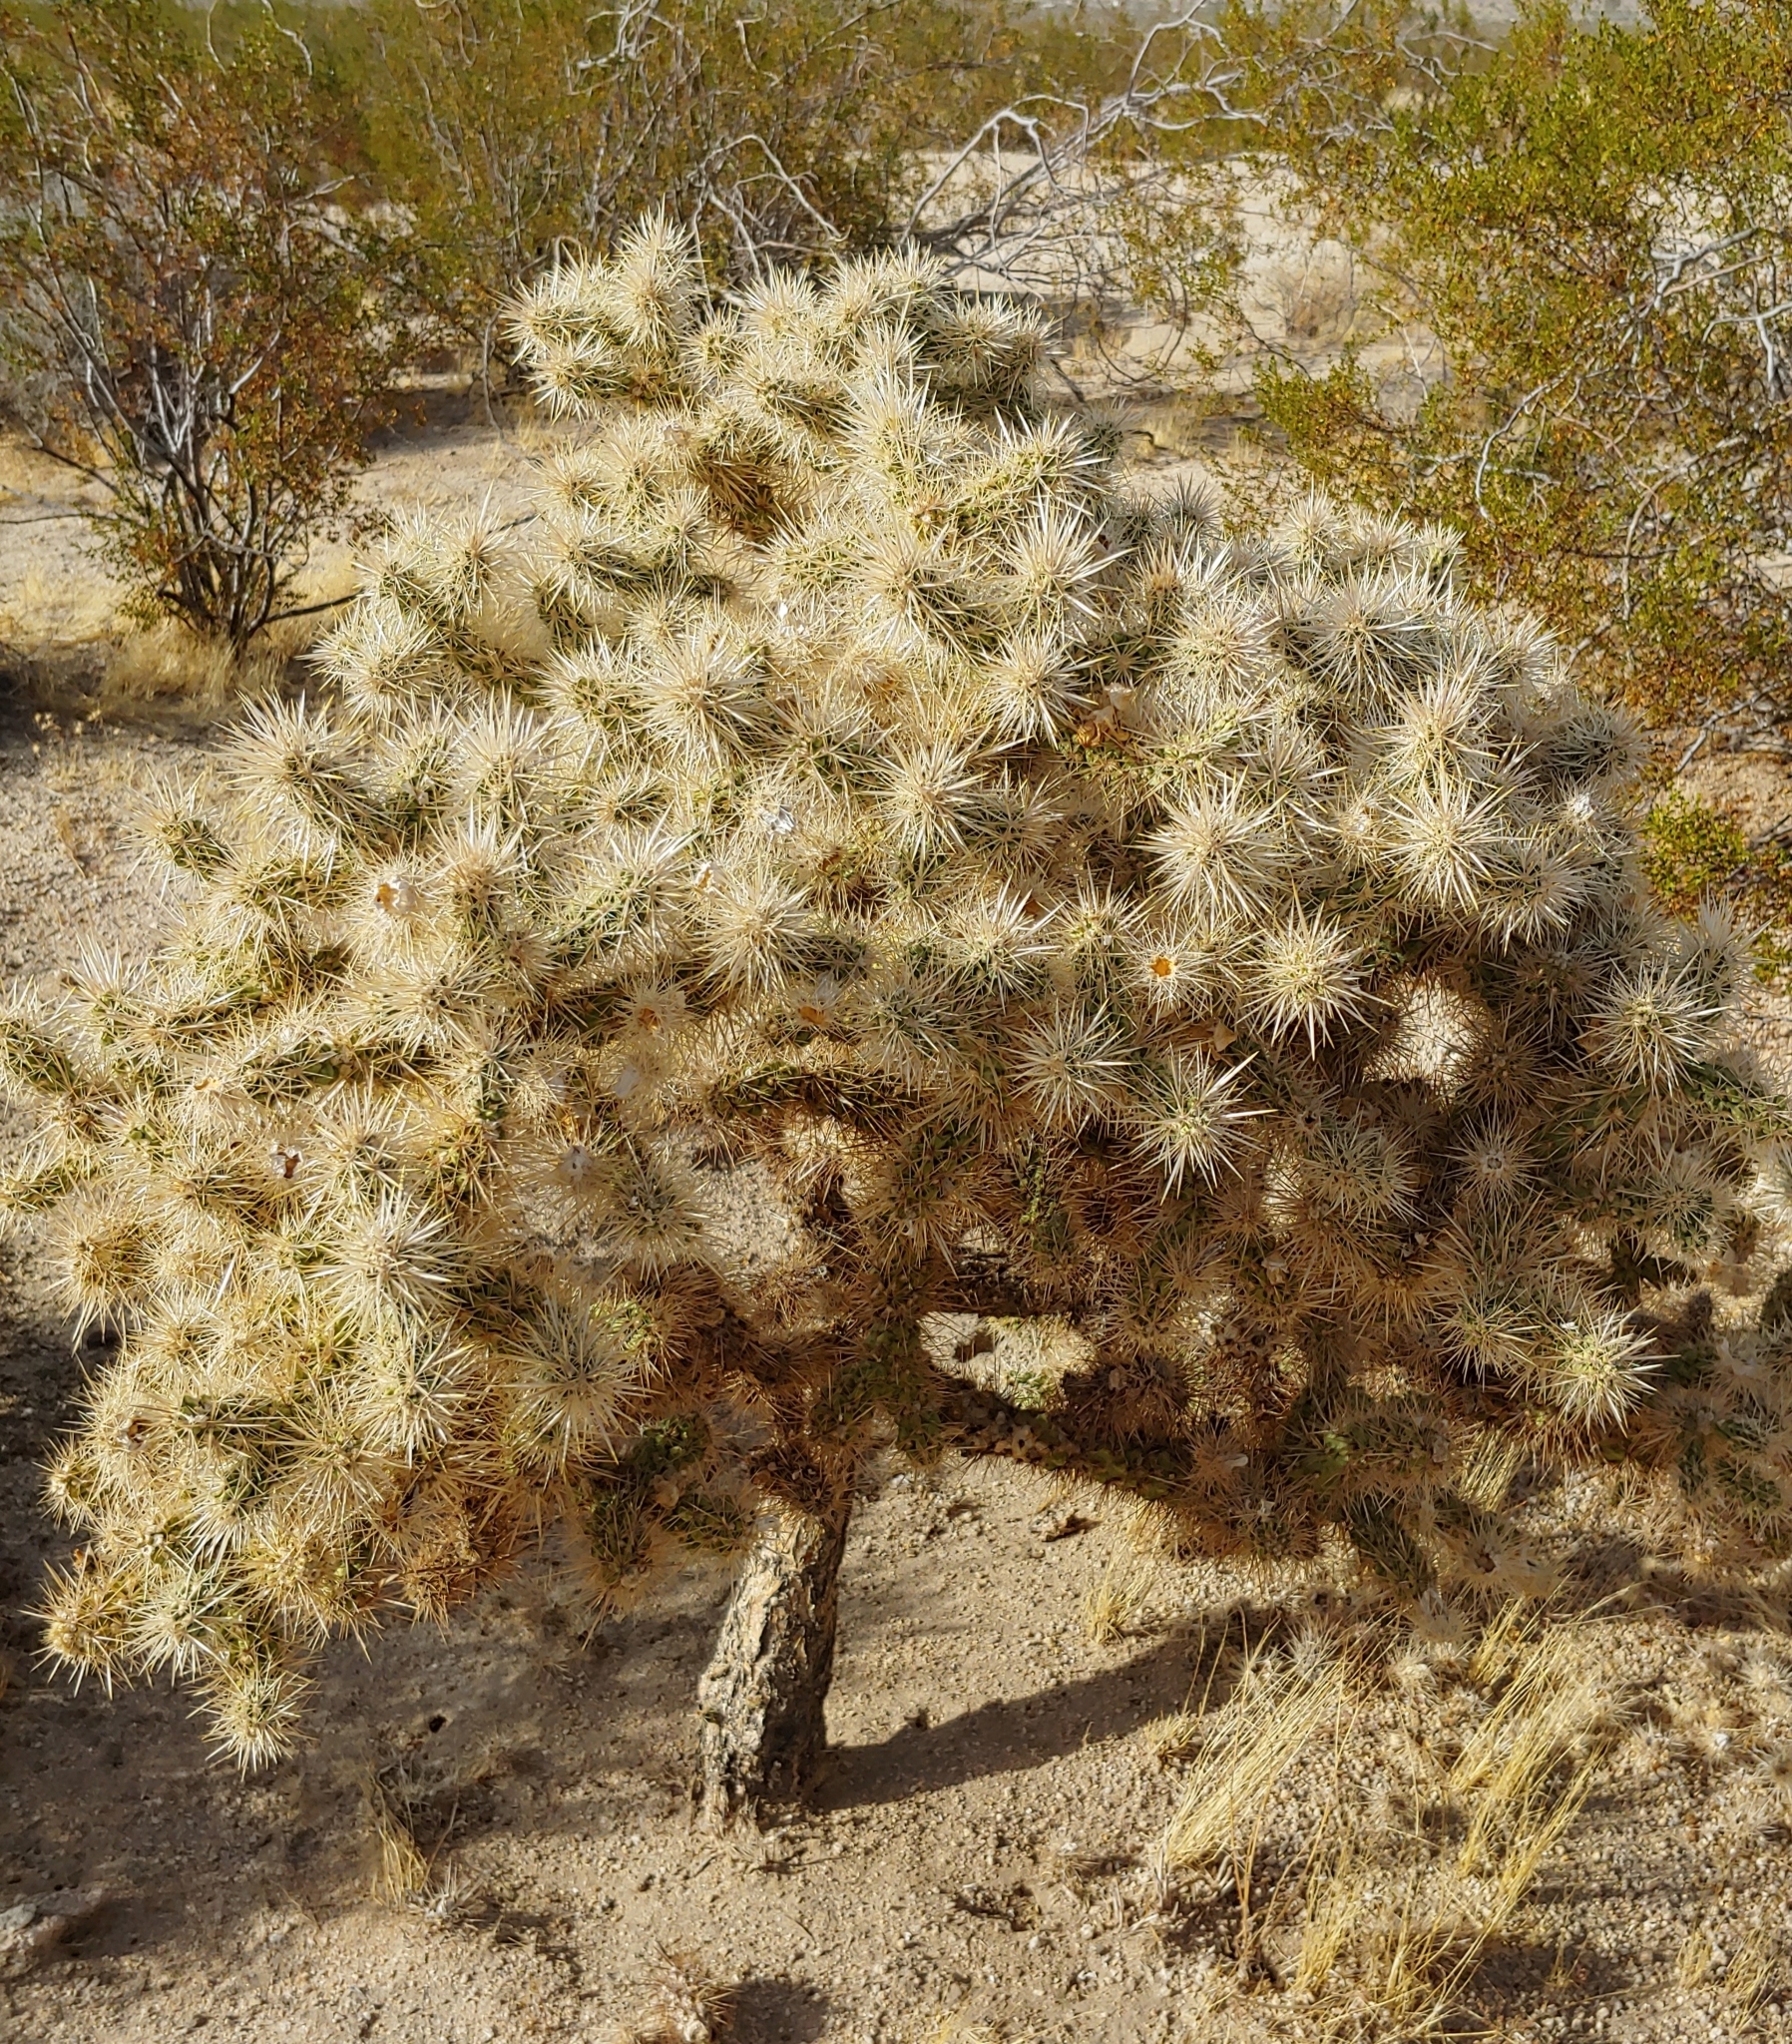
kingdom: Plantae
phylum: Tracheophyta
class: Magnoliopsida
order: Caryophyllales
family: Cactaceae
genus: Cylindropuntia
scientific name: Cylindropuntia echinocarpa
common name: Ground cholla
